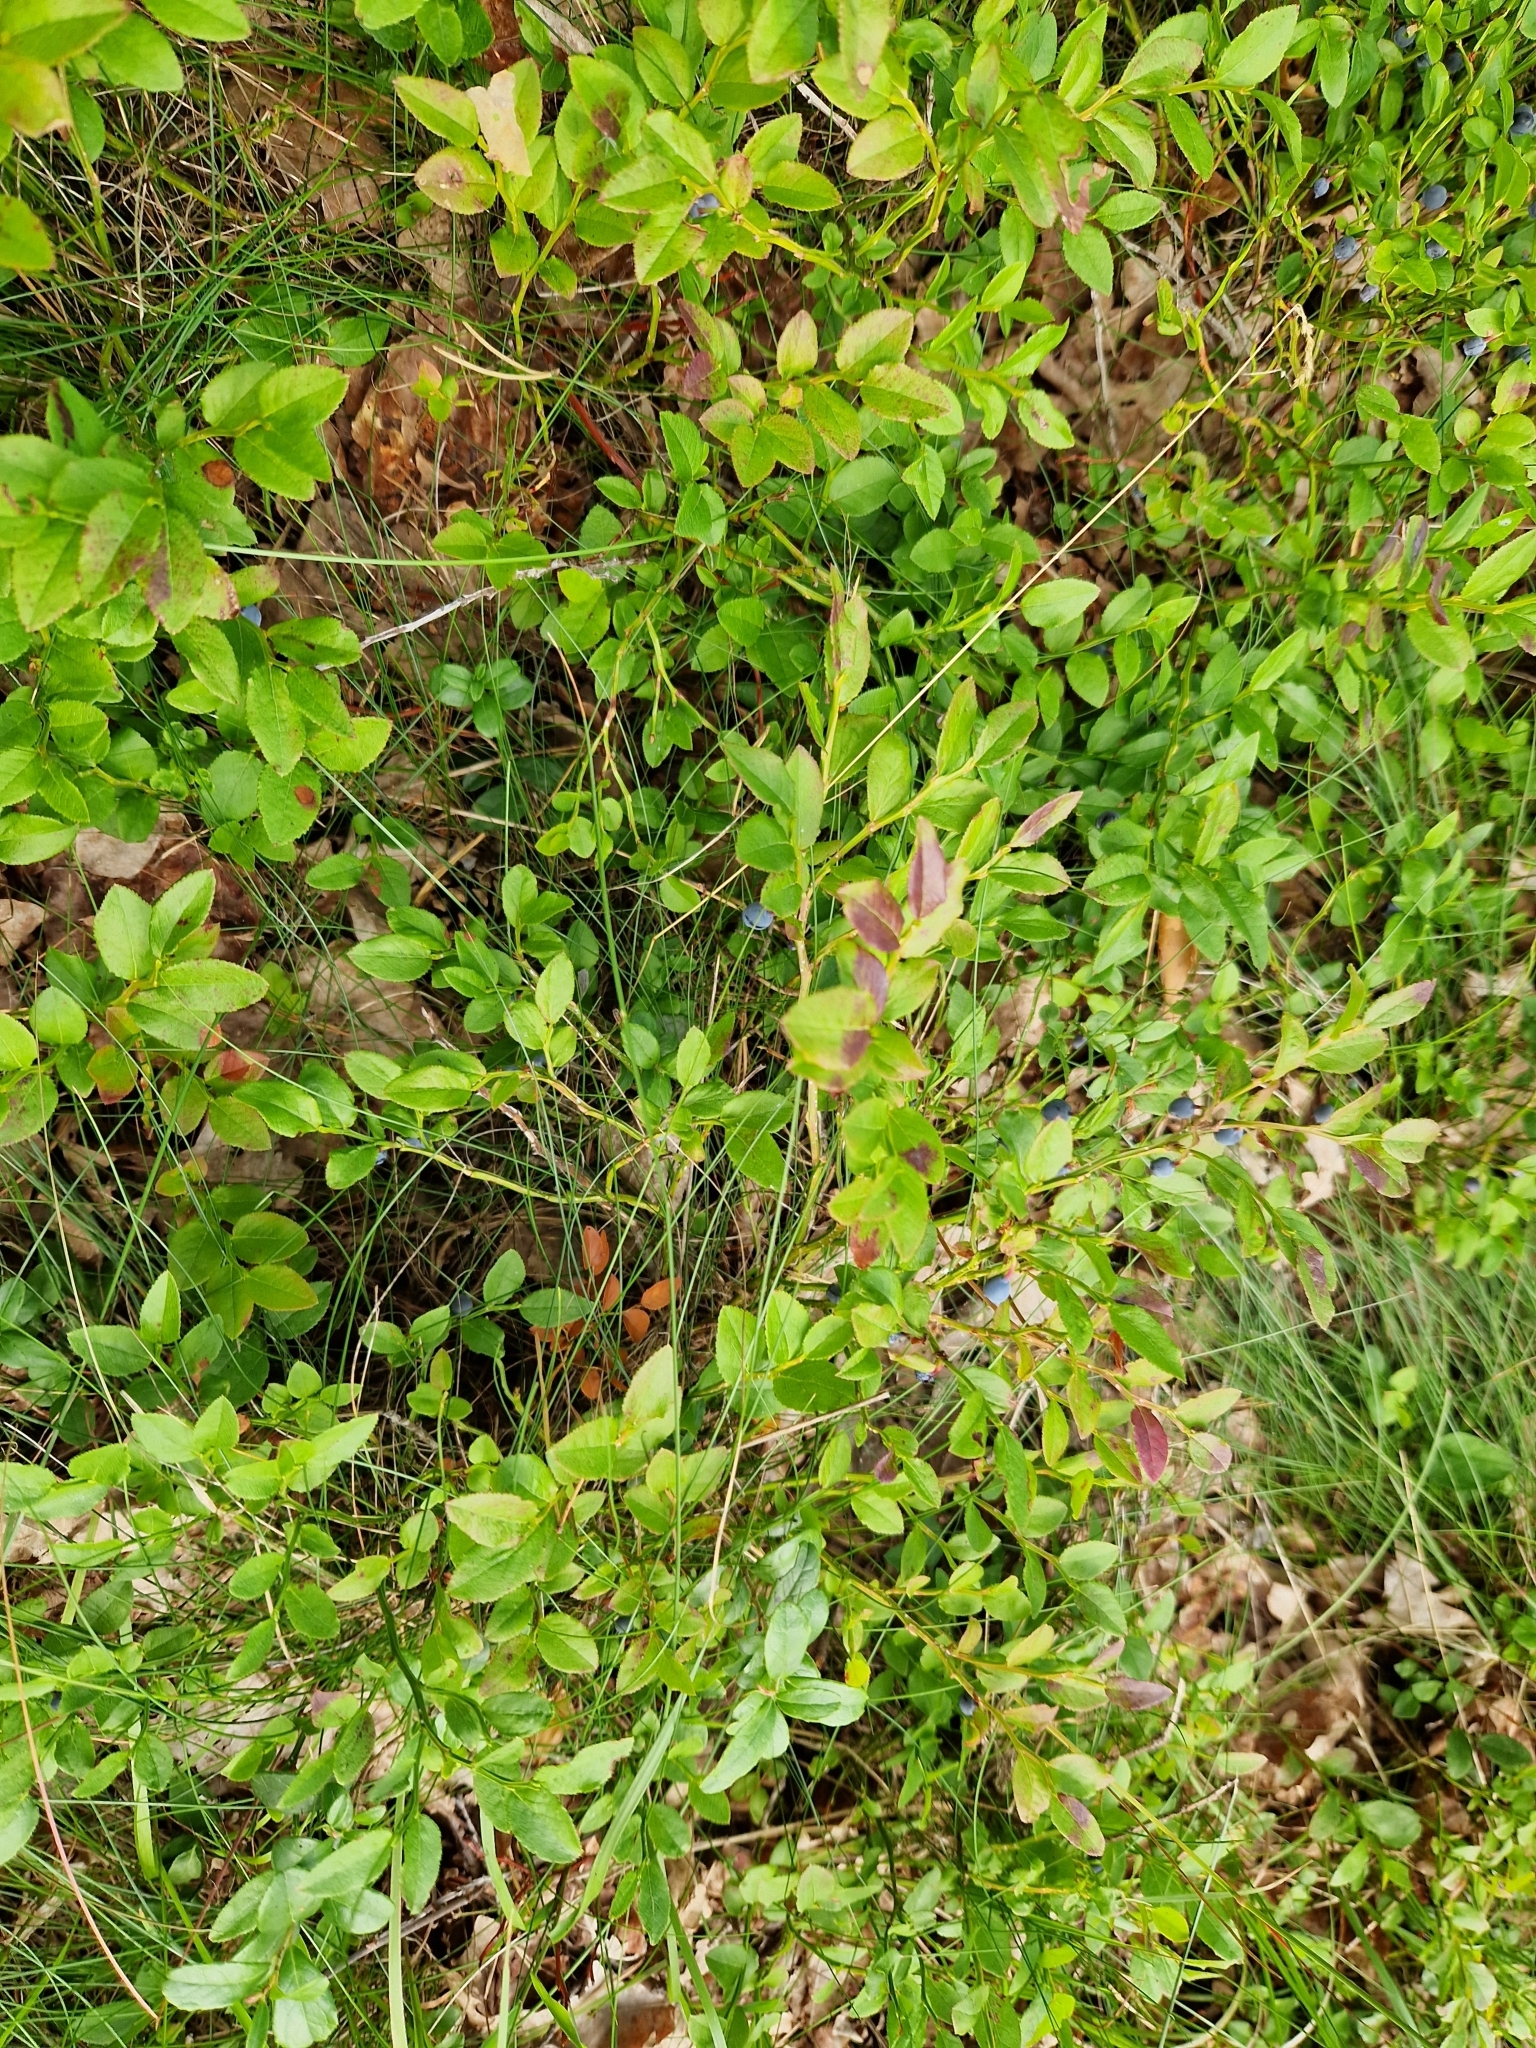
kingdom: Plantae
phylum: Tracheophyta
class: Magnoliopsida
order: Ericales
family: Ericaceae
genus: Vaccinium
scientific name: Vaccinium myrtillus
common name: Bilberry
